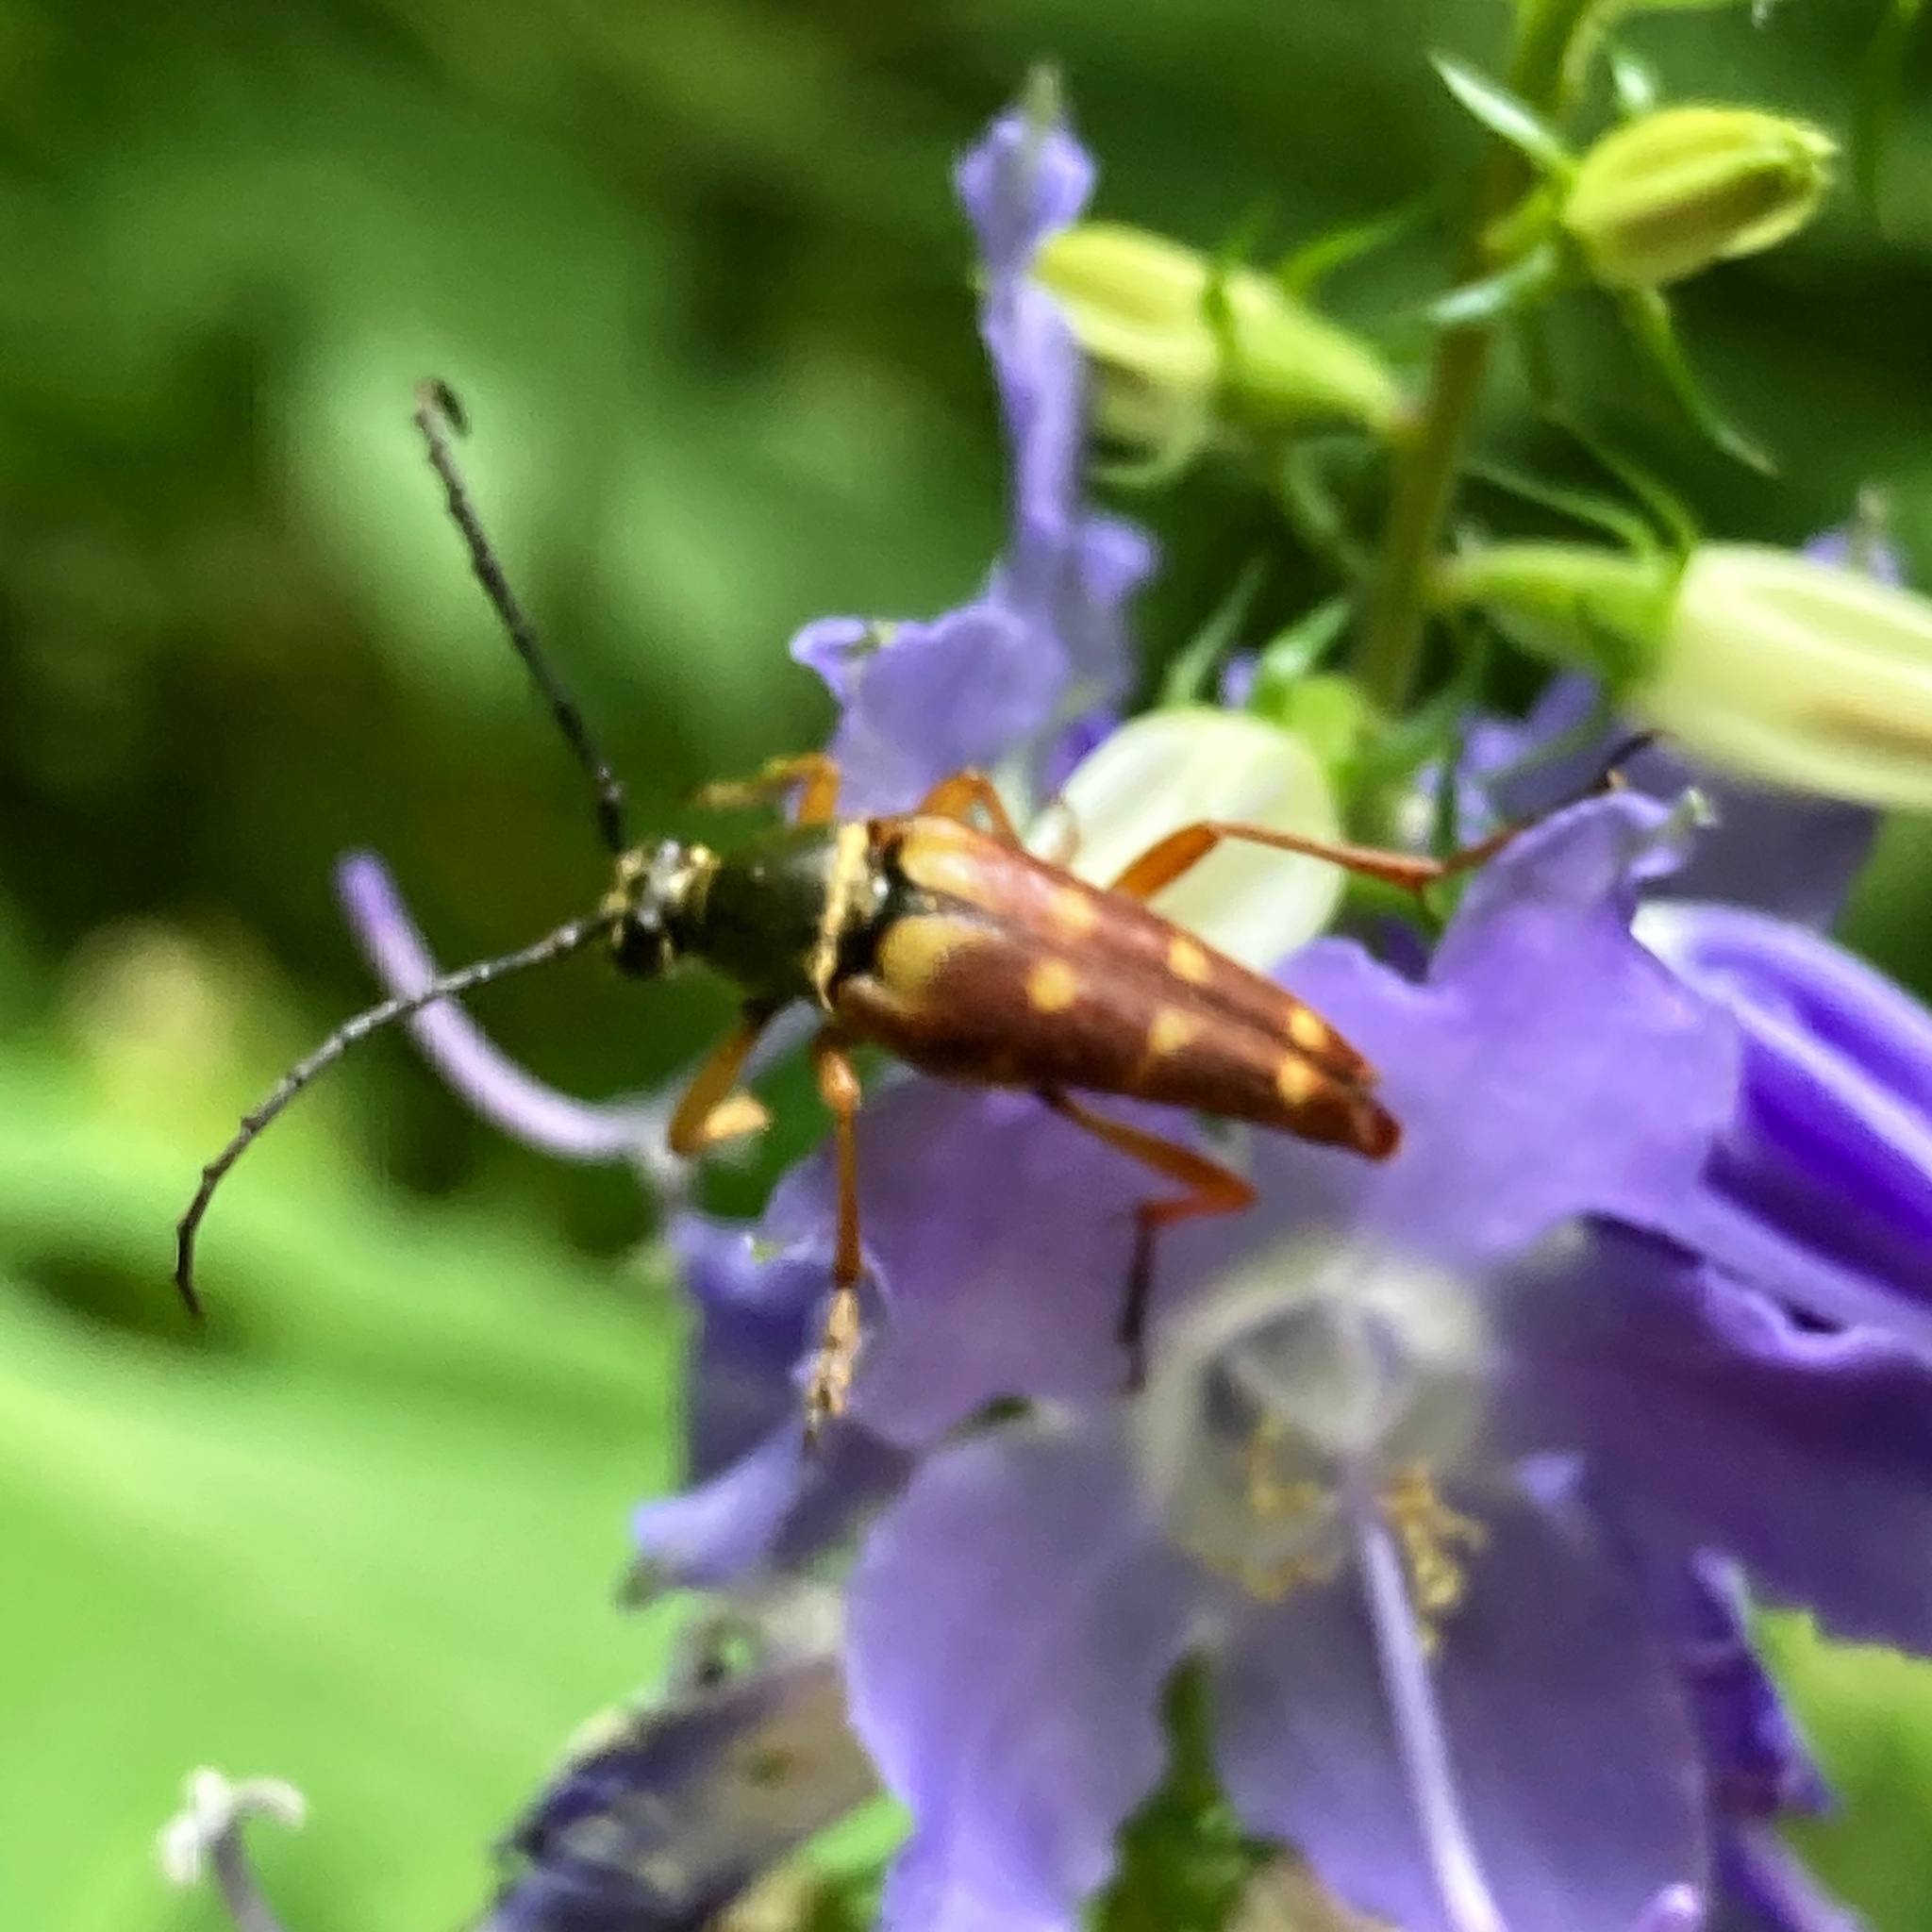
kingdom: Animalia
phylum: Arthropoda
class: Insecta
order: Coleoptera
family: Cerambycidae
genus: Typocerus
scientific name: Typocerus velutinus
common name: Banded longhorn beetle
